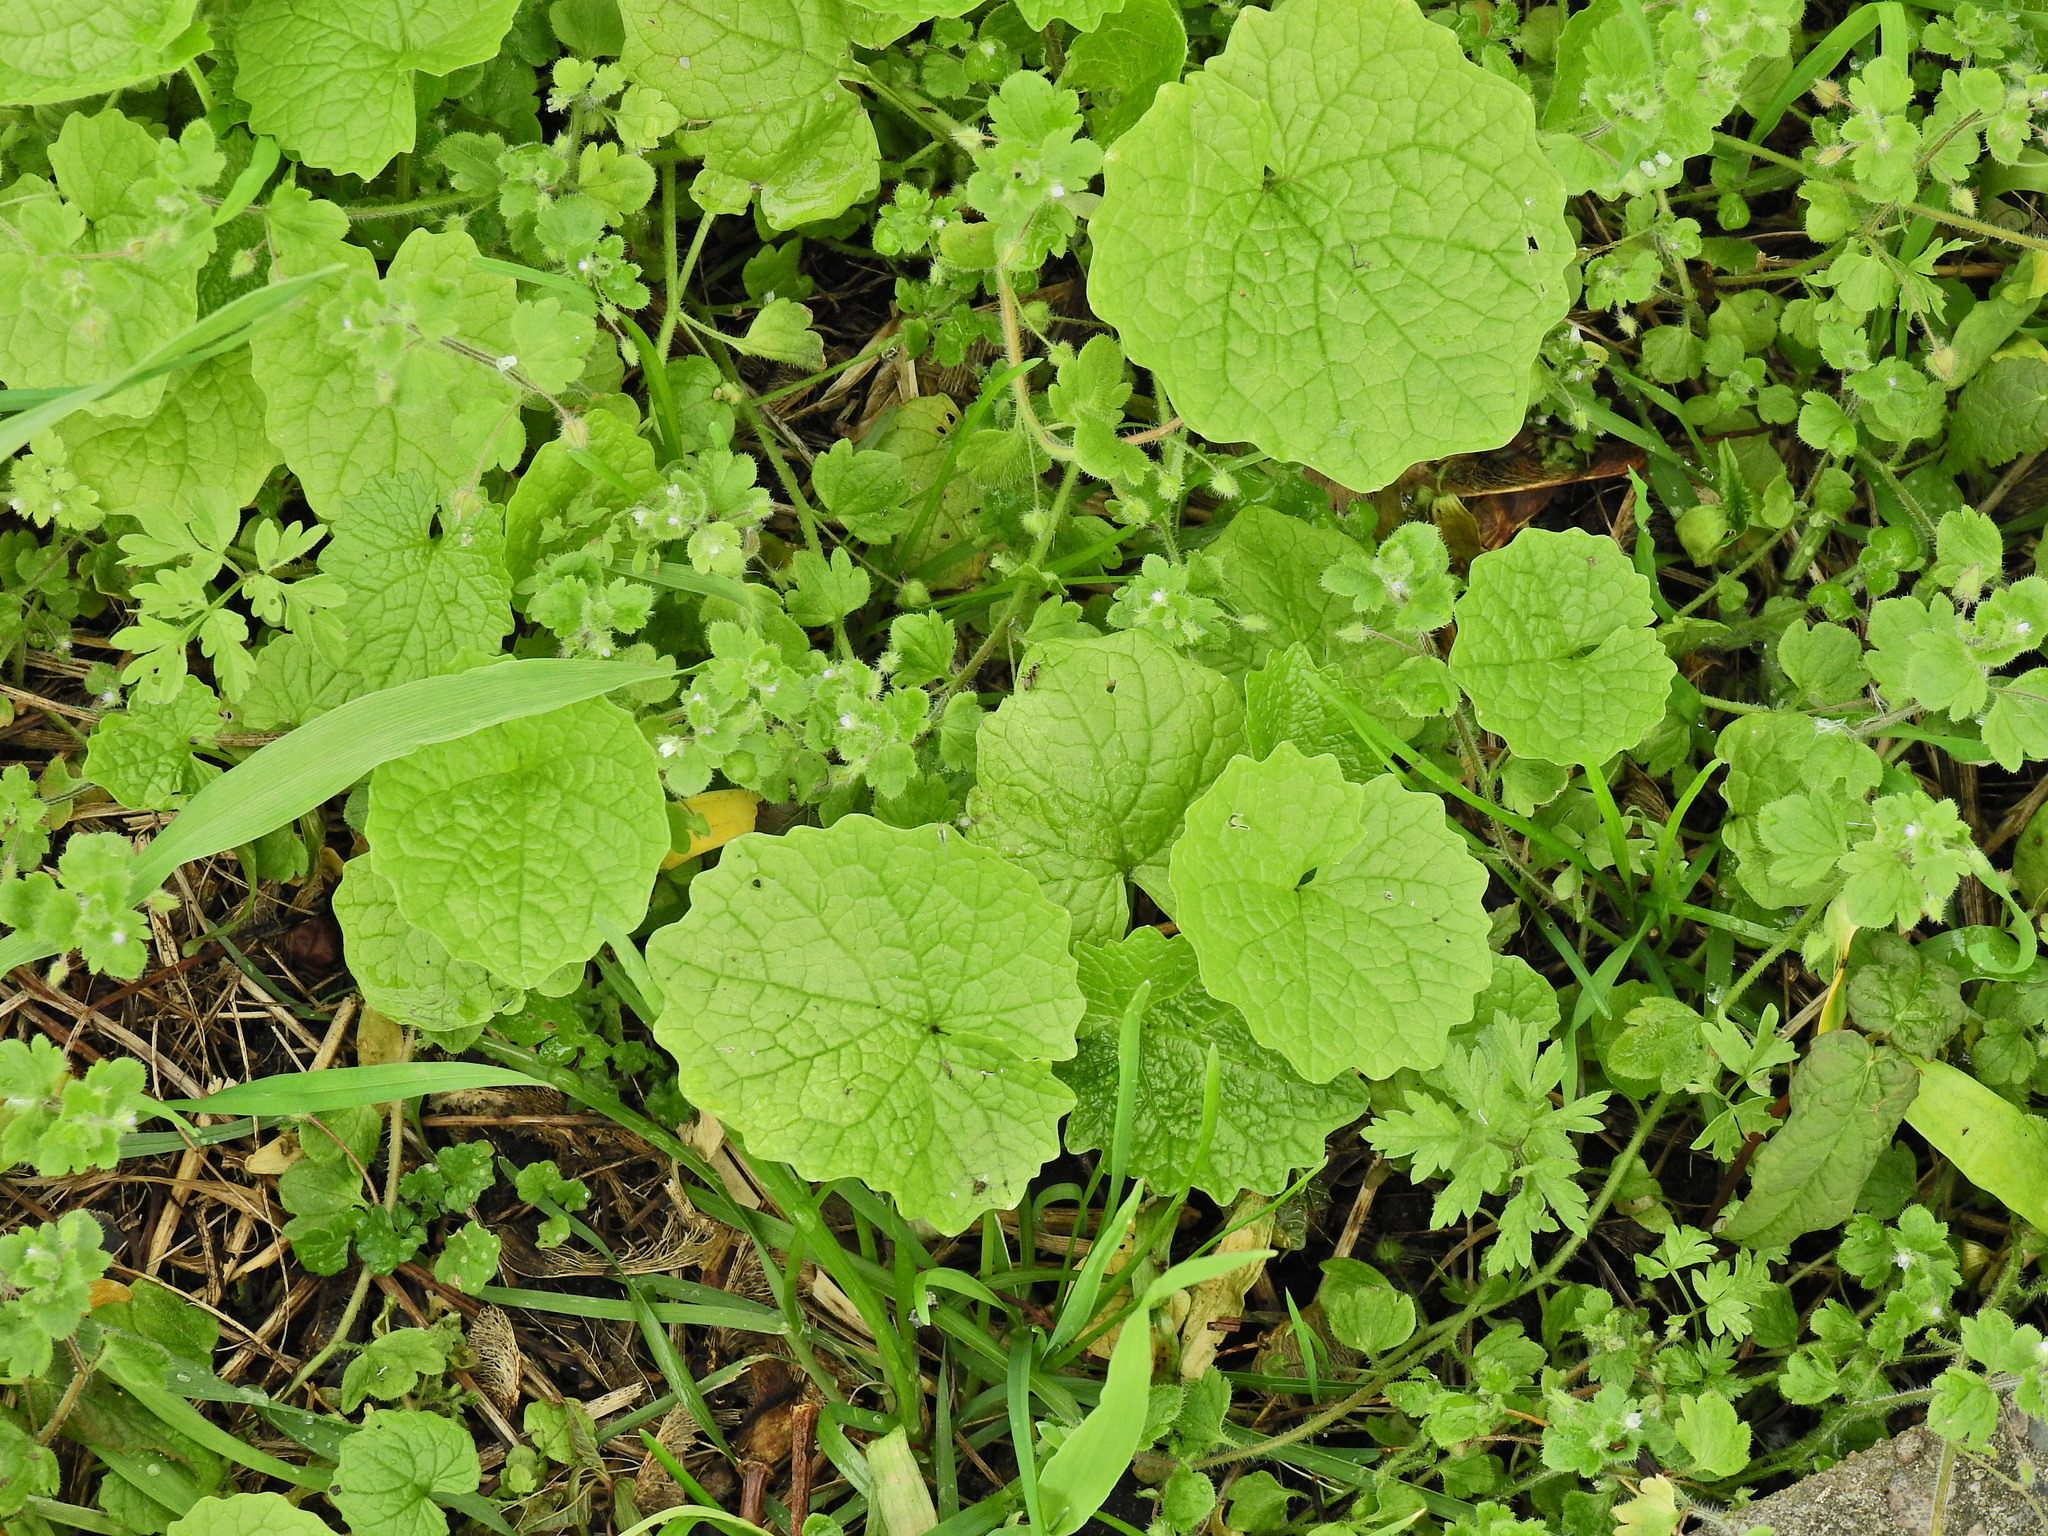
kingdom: Plantae
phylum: Tracheophyta
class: Magnoliopsida
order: Brassicales
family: Brassicaceae
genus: Alliaria
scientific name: Alliaria petiolata
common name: Garlic mustard
